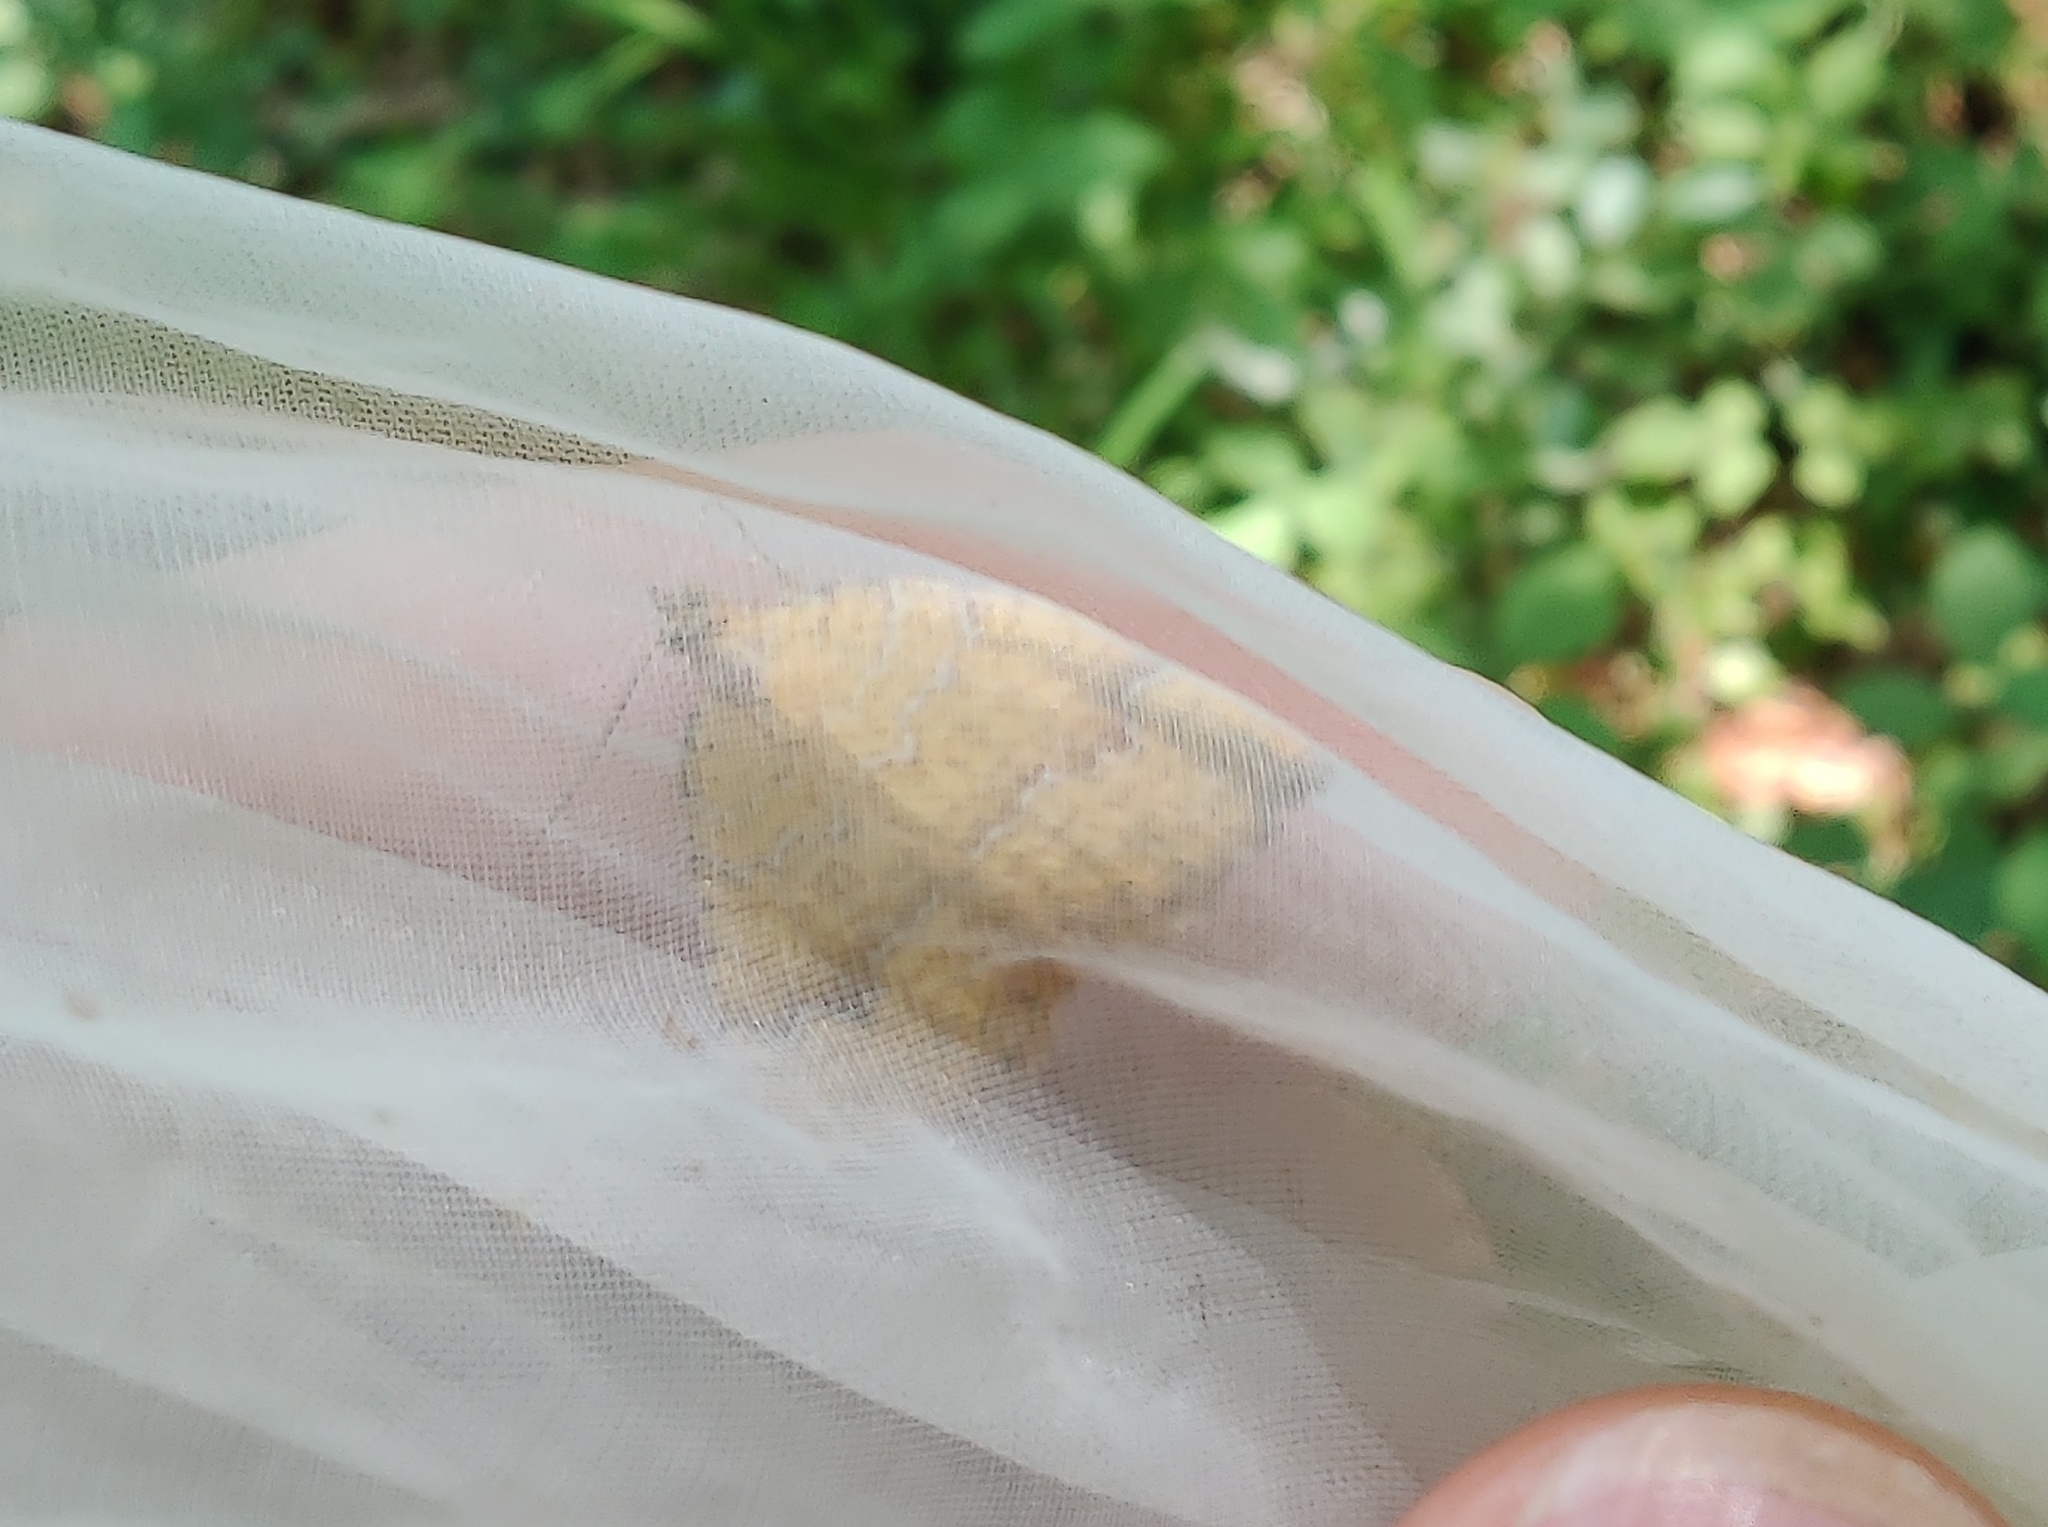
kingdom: Animalia
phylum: Arthropoda
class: Insecta
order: Lepidoptera
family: Geometridae
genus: Camptogramma
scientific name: Camptogramma bilineata
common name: Yellow shell
